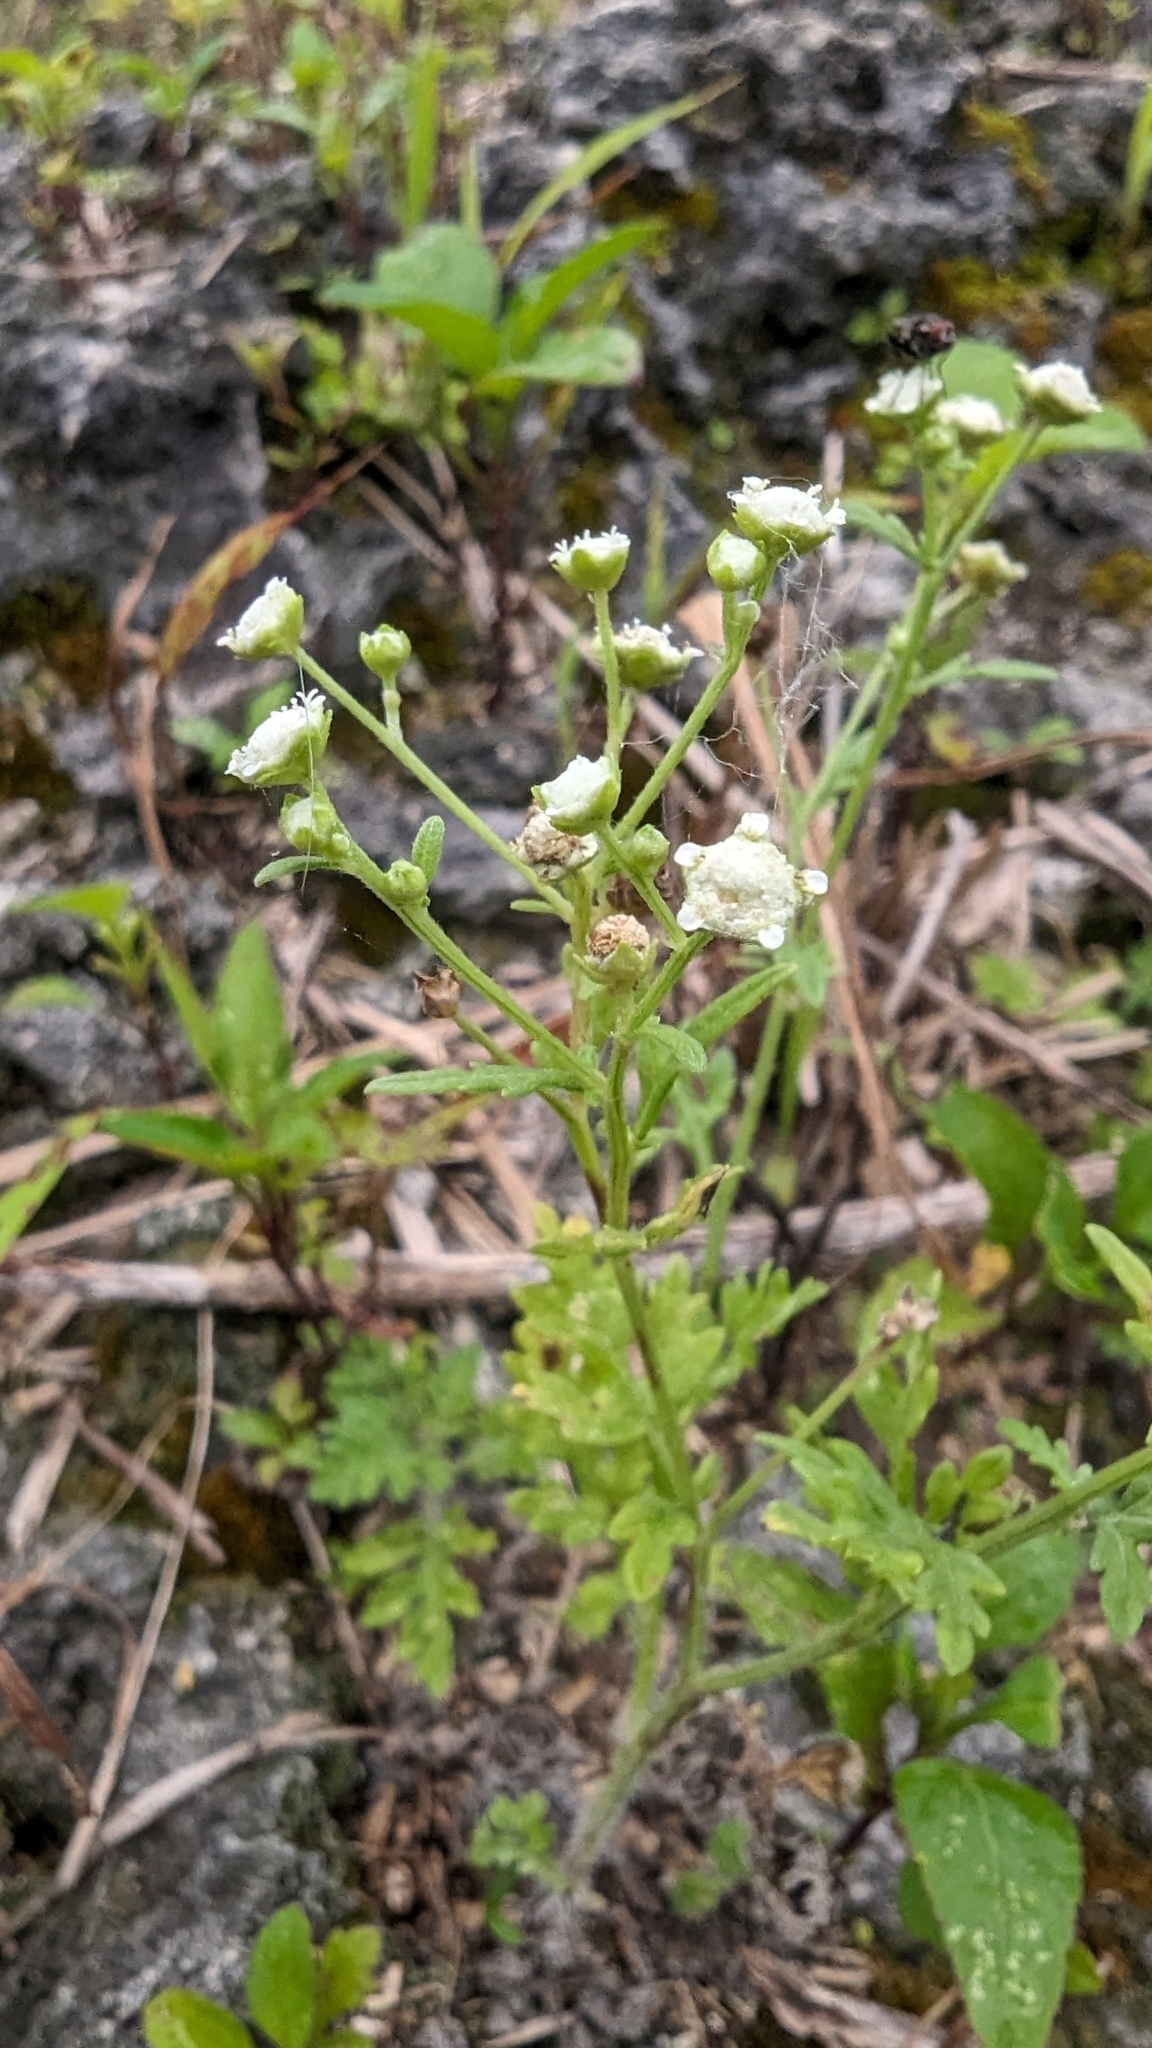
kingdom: Plantae
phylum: Tracheophyta
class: Magnoliopsida
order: Asterales
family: Asteraceae
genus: Parthenium
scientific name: Parthenium hysterophorus
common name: Santa maria feverfew
